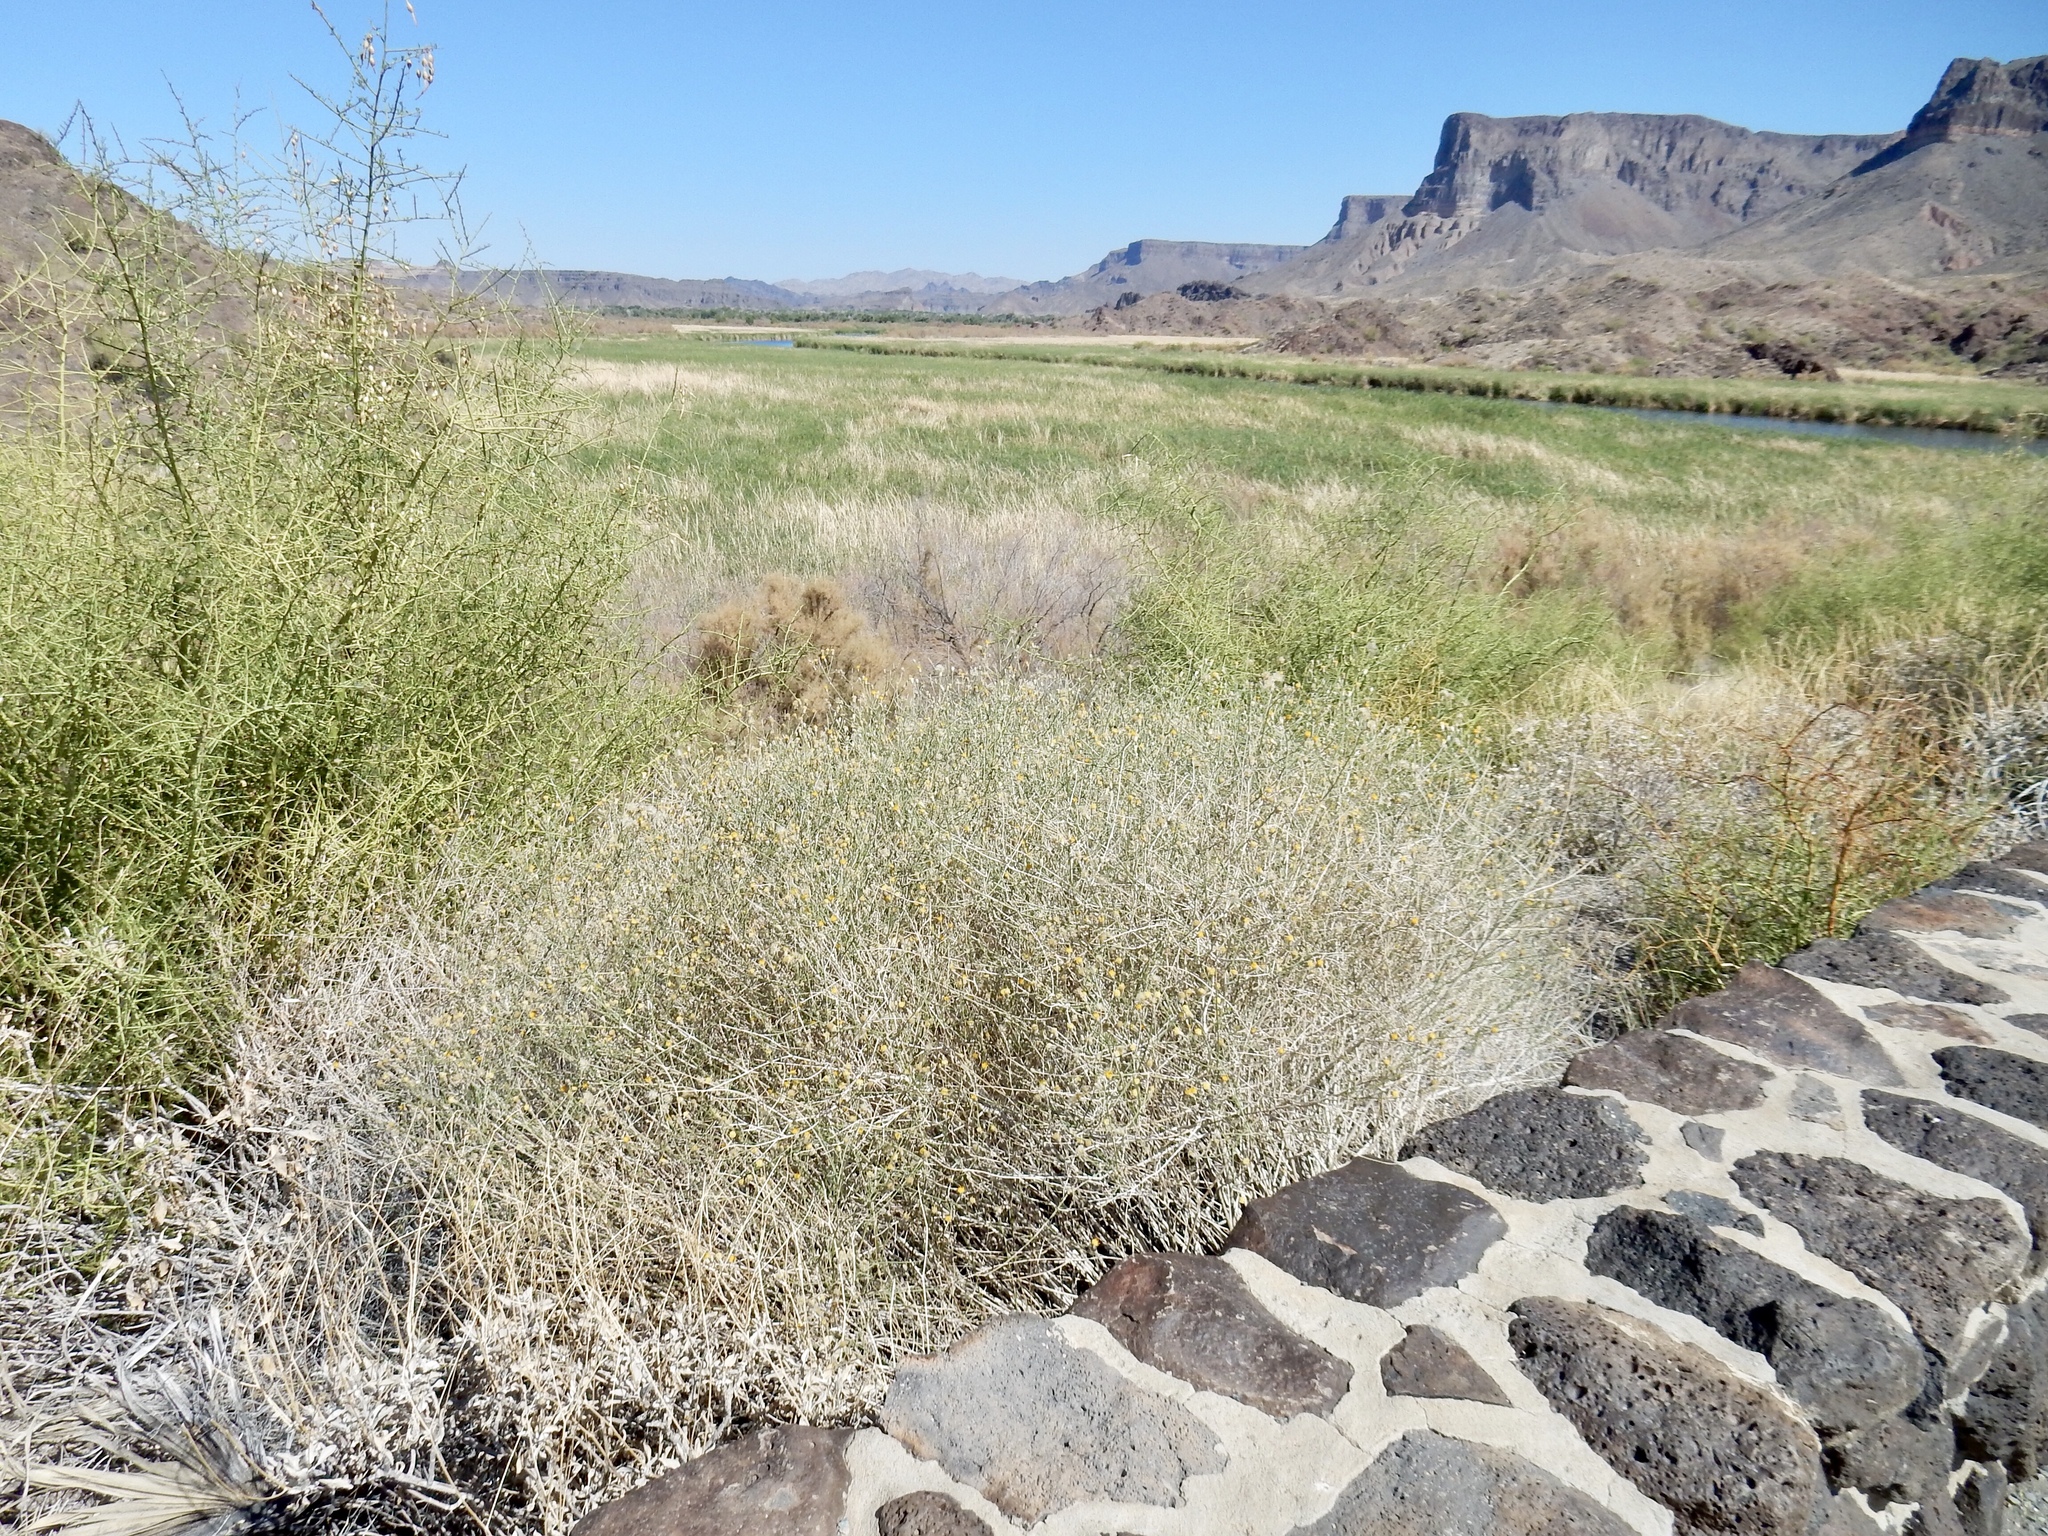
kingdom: Plantae
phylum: Tracheophyta
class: Magnoliopsida
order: Asterales
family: Asteraceae
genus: Bebbia
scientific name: Bebbia juncea
